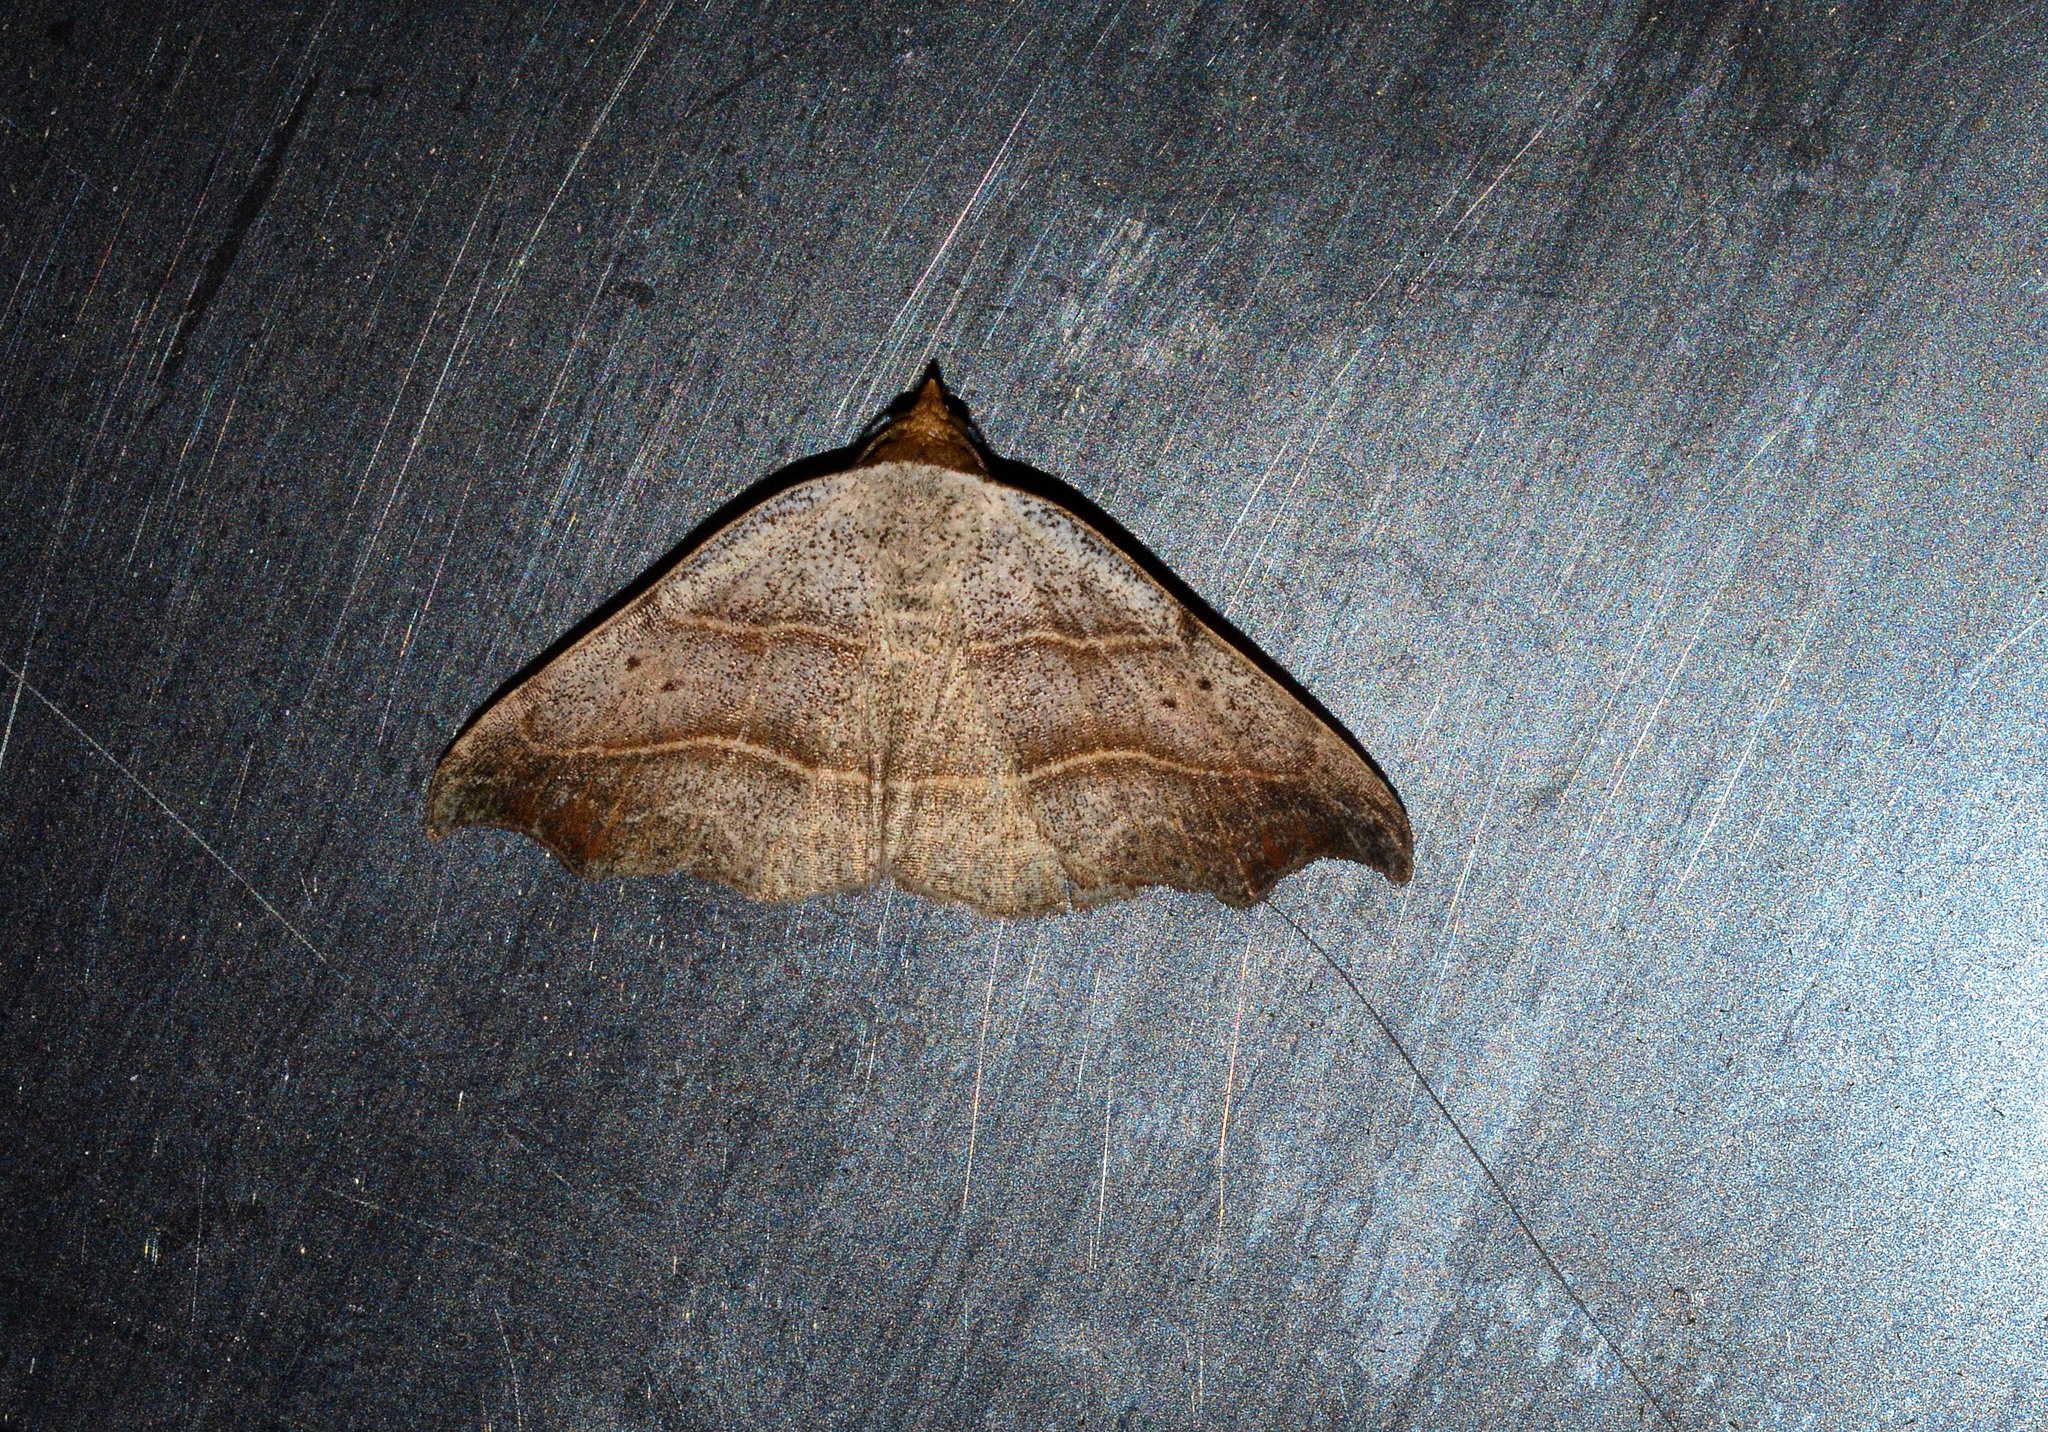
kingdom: Animalia
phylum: Arthropoda
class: Insecta
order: Lepidoptera
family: Erebidae
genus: Laspeyria
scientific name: Laspeyria flexula
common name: Beautiful hook-tip
